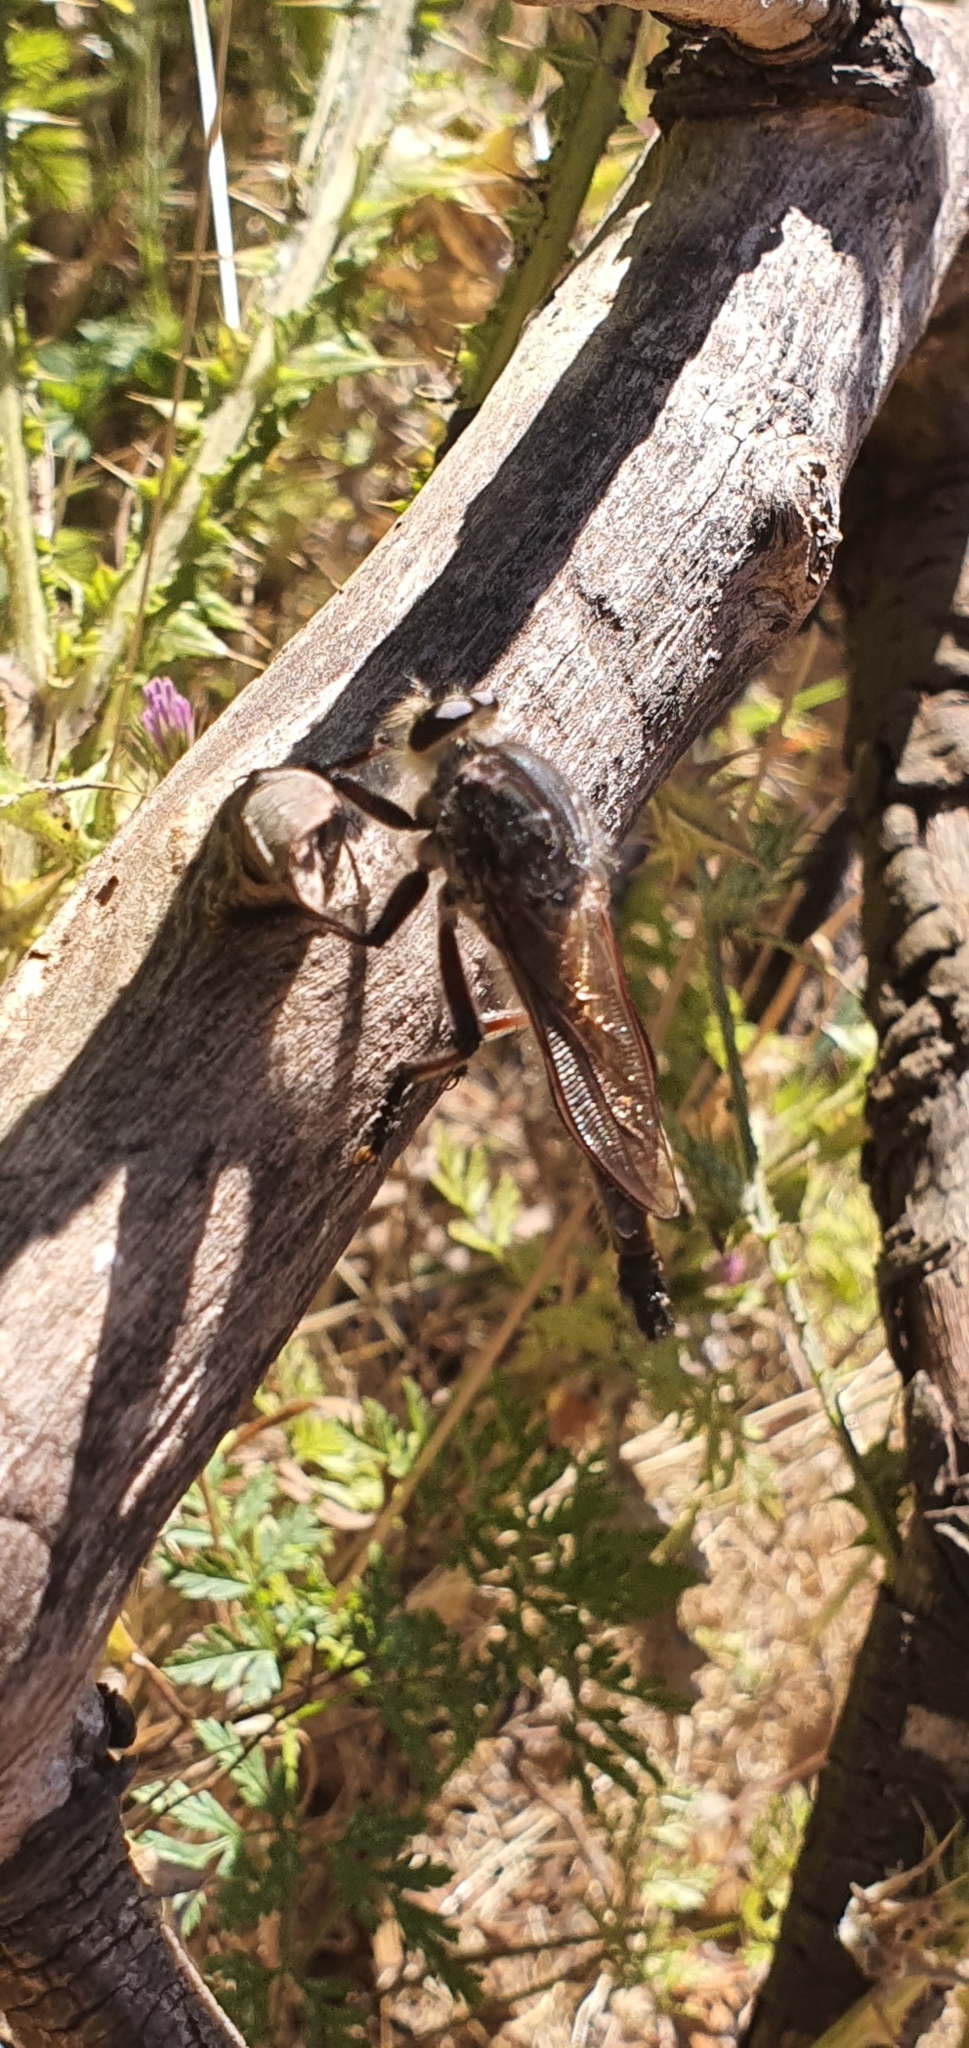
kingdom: Animalia
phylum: Arthropoda
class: Insecta
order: Diptera
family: Asilidae
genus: Neoaratus
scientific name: Neoaratus hercules
